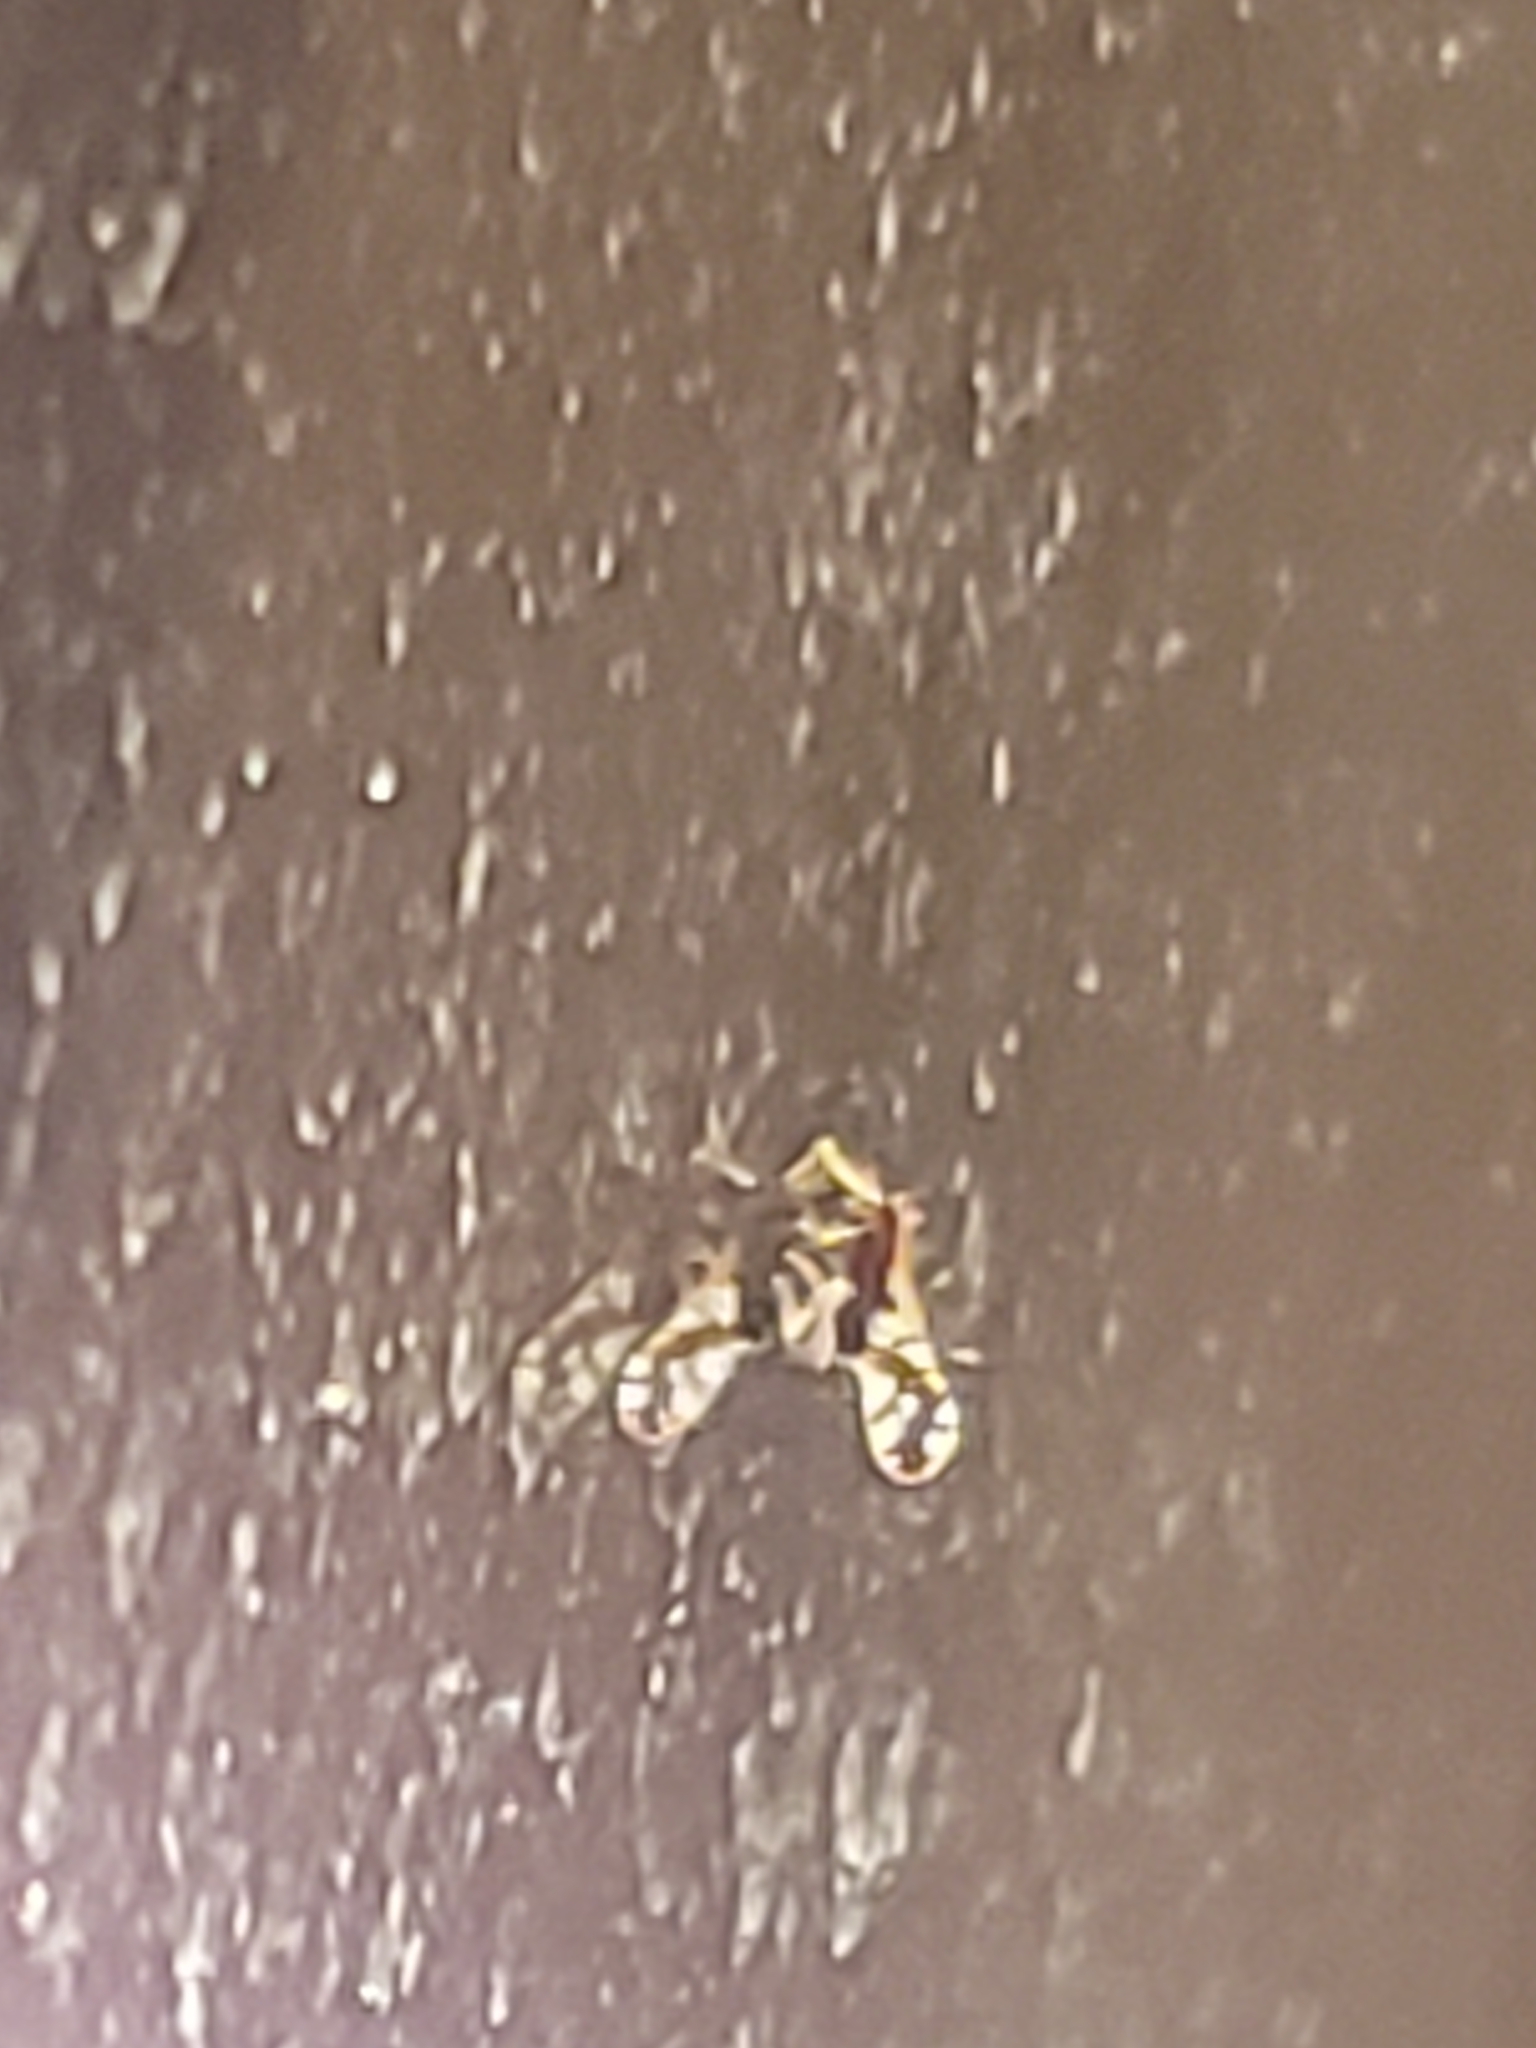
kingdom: Animalia
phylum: Arthropoda
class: Insecta
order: Hemiptera
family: Delphacidae
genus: Liburniella
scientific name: Liburniella ornata
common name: Ornate planthopper
